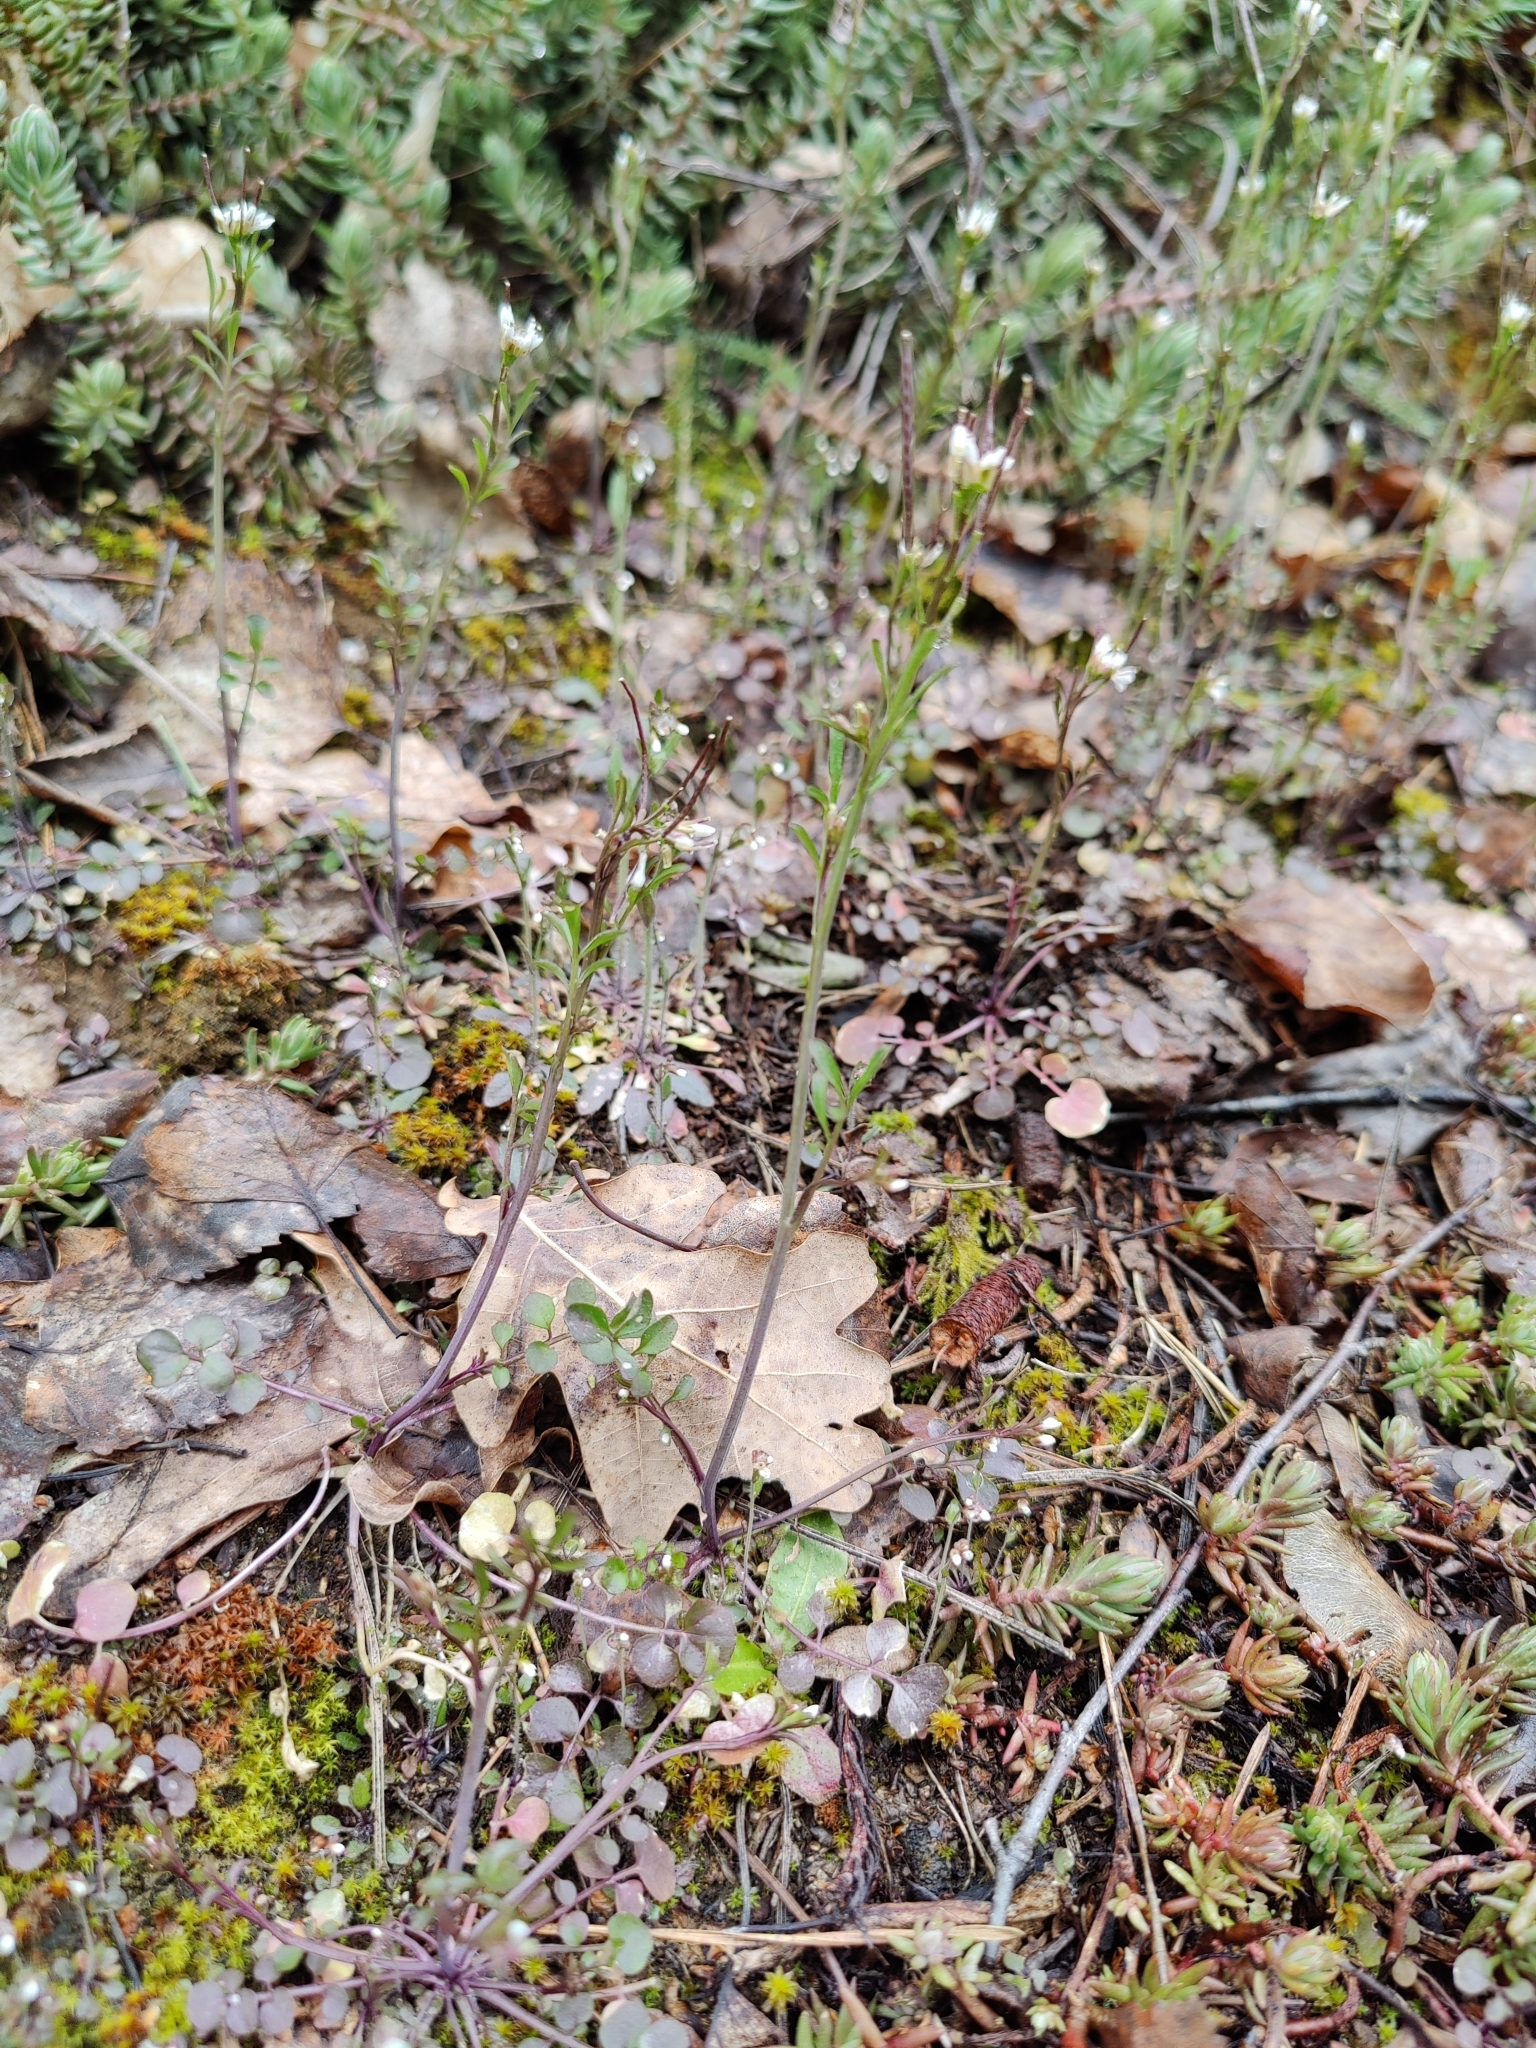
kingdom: Plantae
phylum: Tracheophyta
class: Magnoliopsida
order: Brassicales
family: Brassicaceae
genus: Cardamine
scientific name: Cardamine hirsuta
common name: Hairy bittercress
